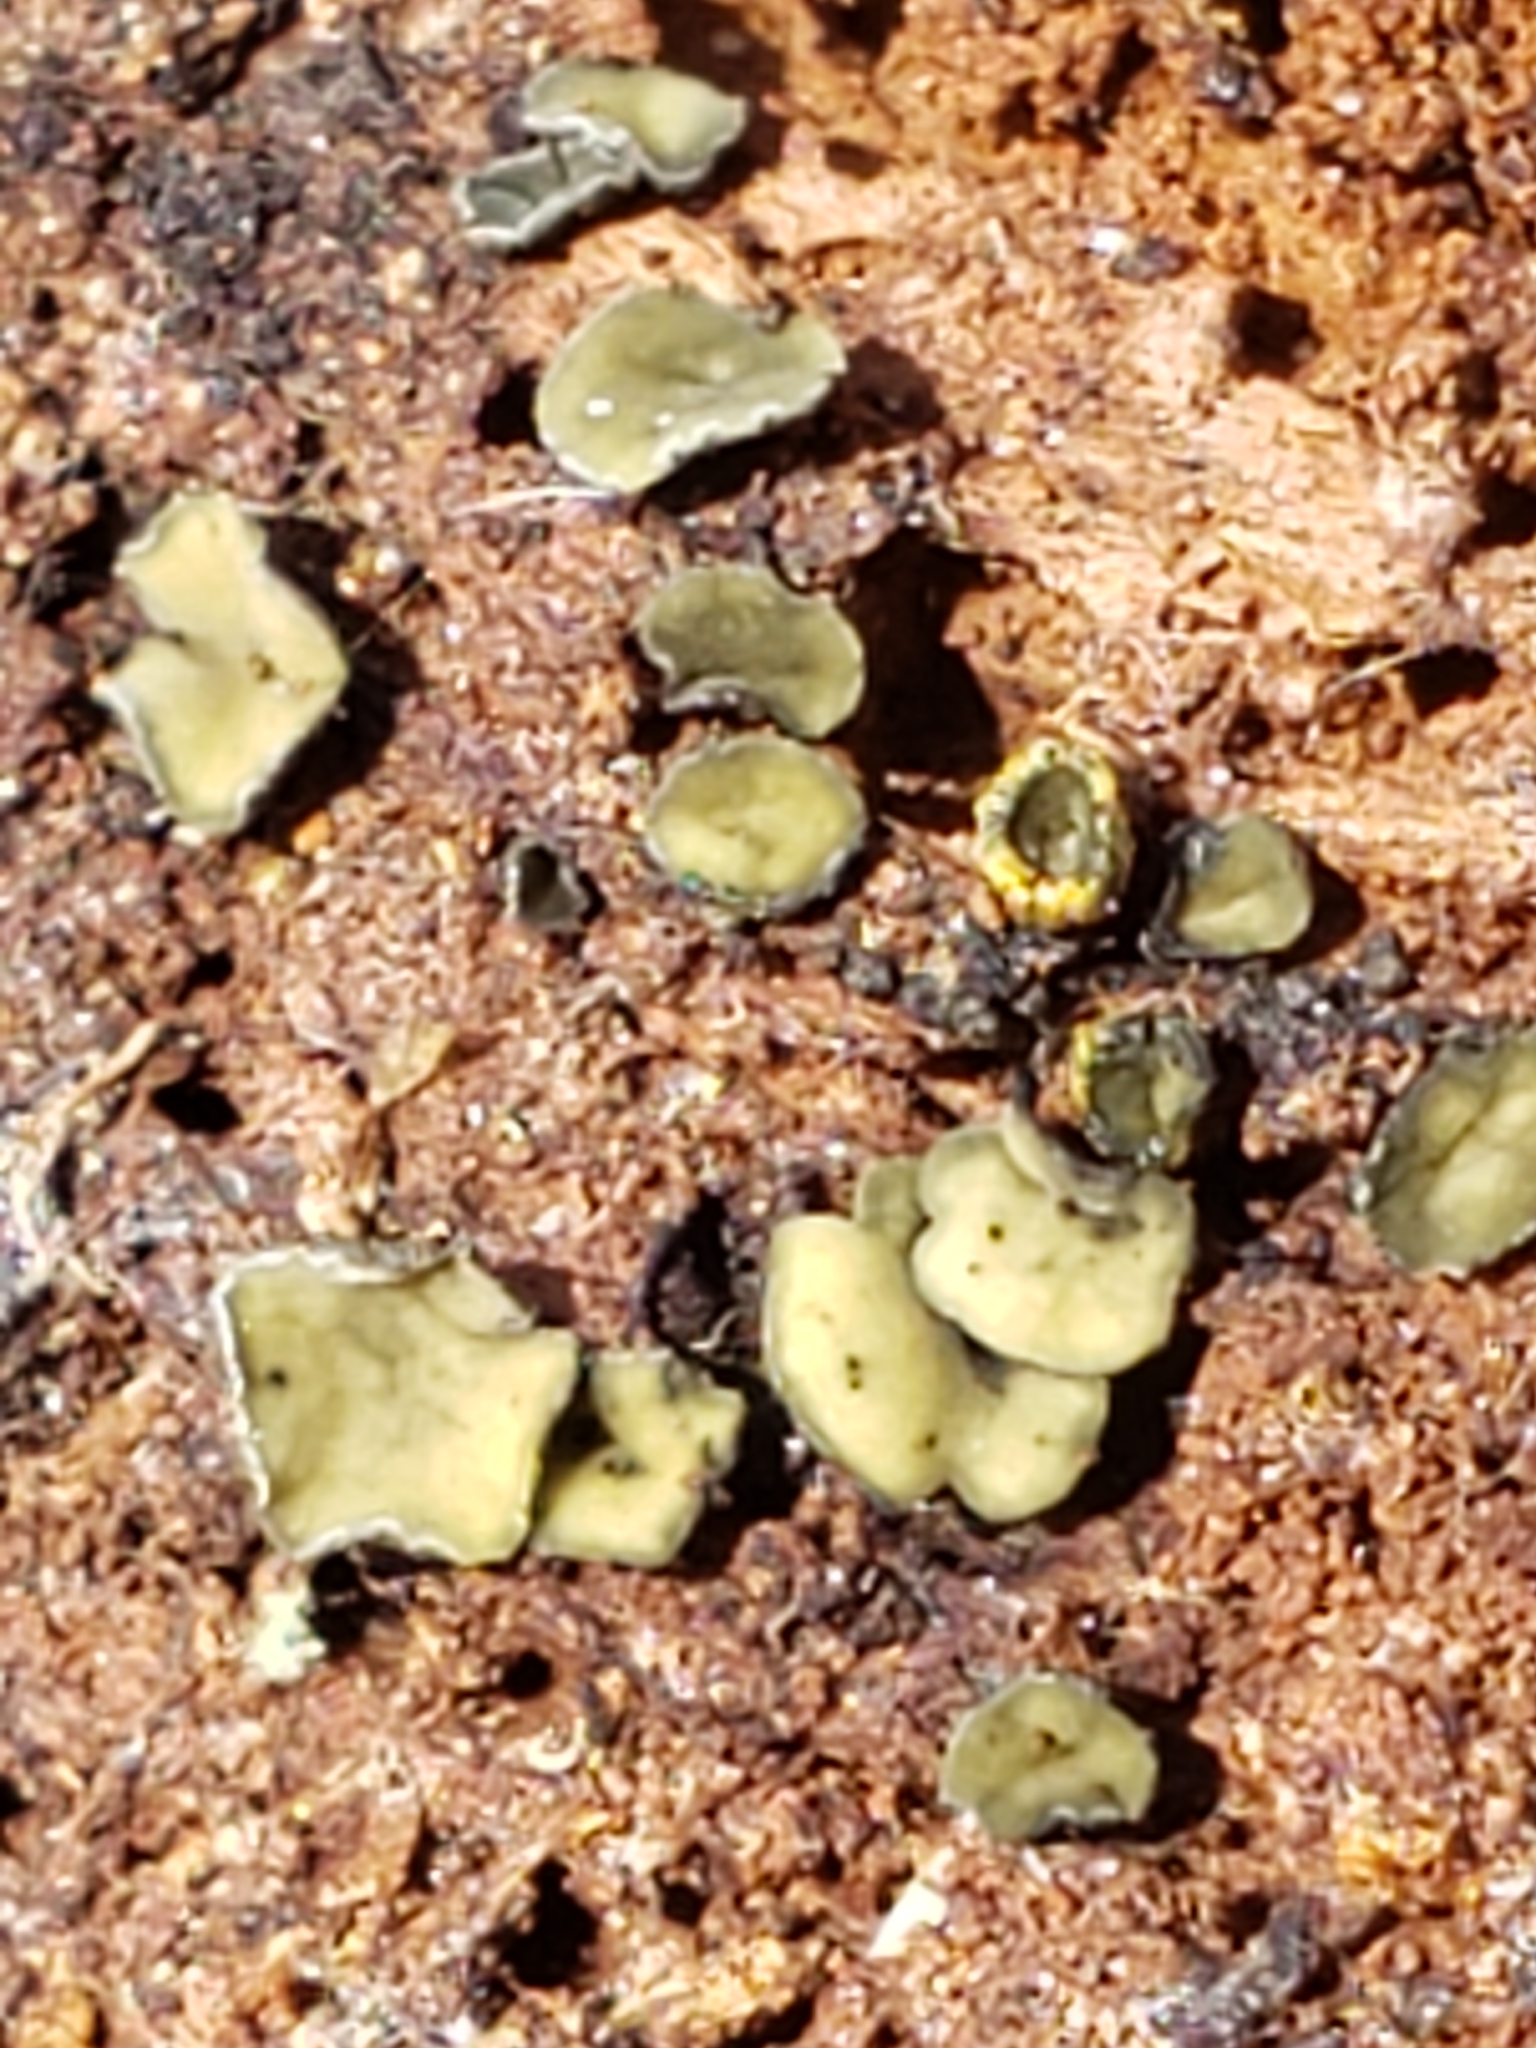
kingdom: Fungi
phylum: Ascomycota
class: Leotiomycetes
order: Helotiales
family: Chlorospleniaceae
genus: Chlorosplenium
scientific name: Chlorosplenium chlora
